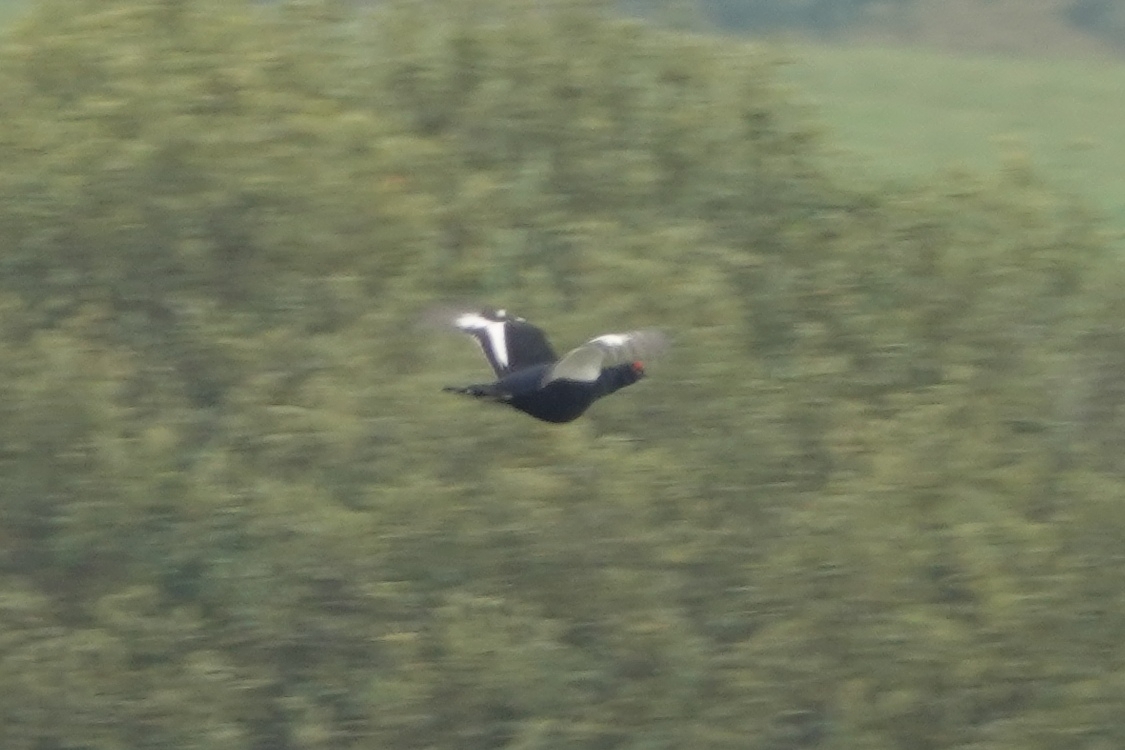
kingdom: Animalia
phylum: Chordata
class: Aves
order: Galliformes
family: Phasianidae
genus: Lyrurus
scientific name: Lyrurus tetrix
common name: Black grouse
